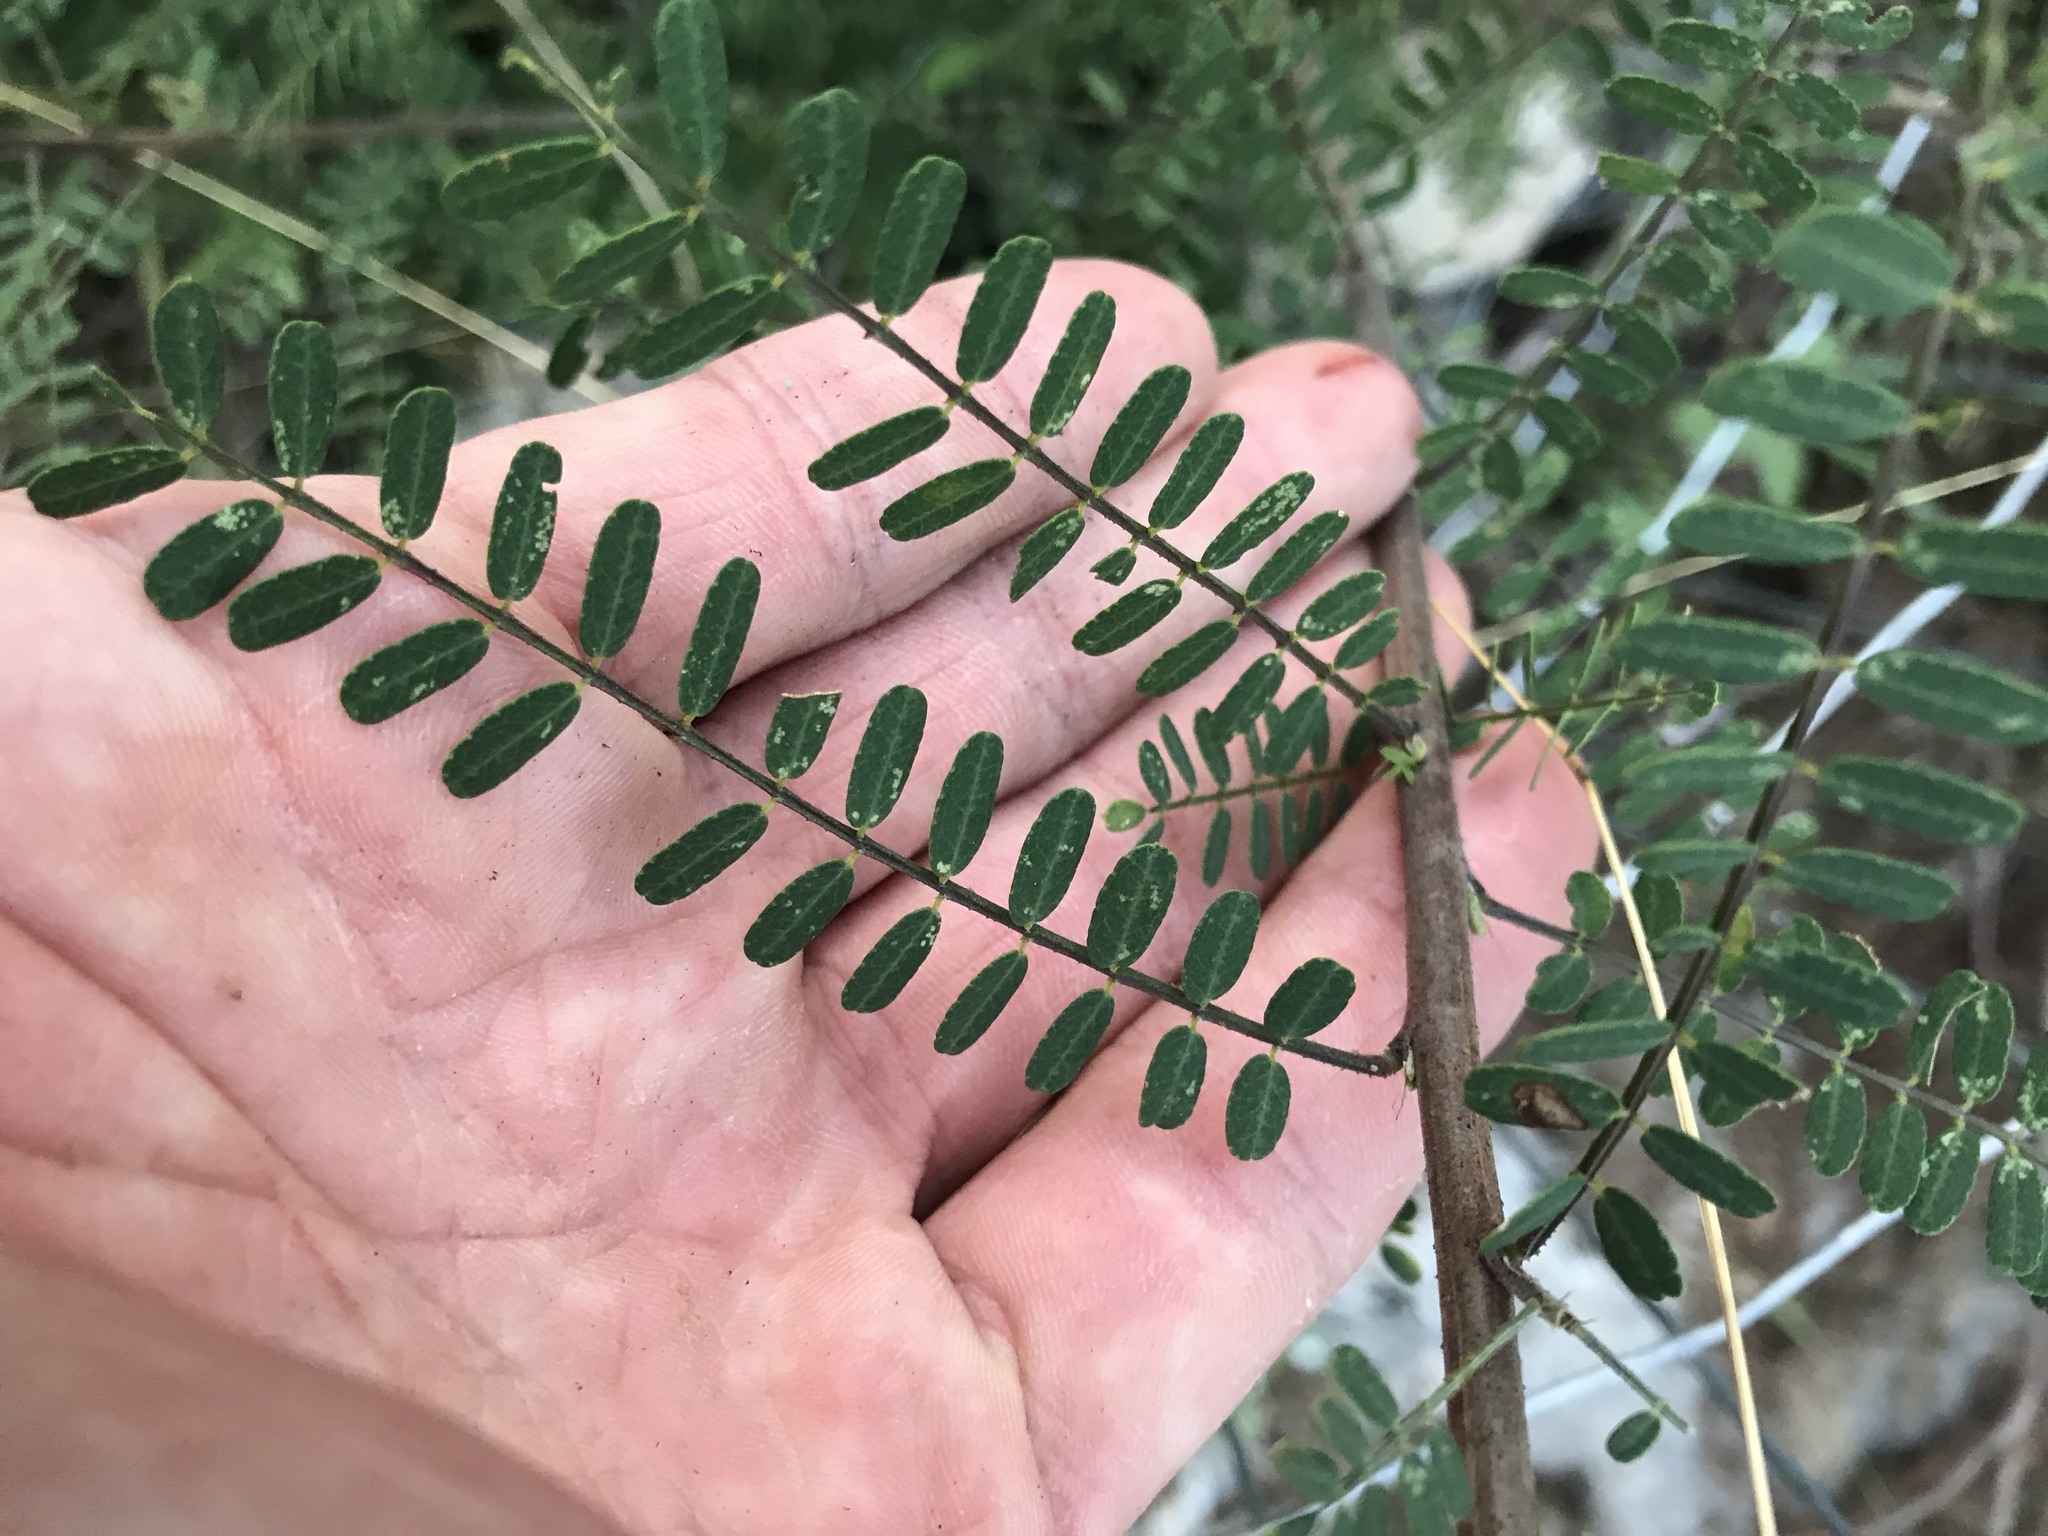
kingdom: Plantae
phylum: Tracheophyta
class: Magnoliopsida
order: Fabales
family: Fabaceae
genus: Eysenhardtia
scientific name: Eysenhardtia texana
